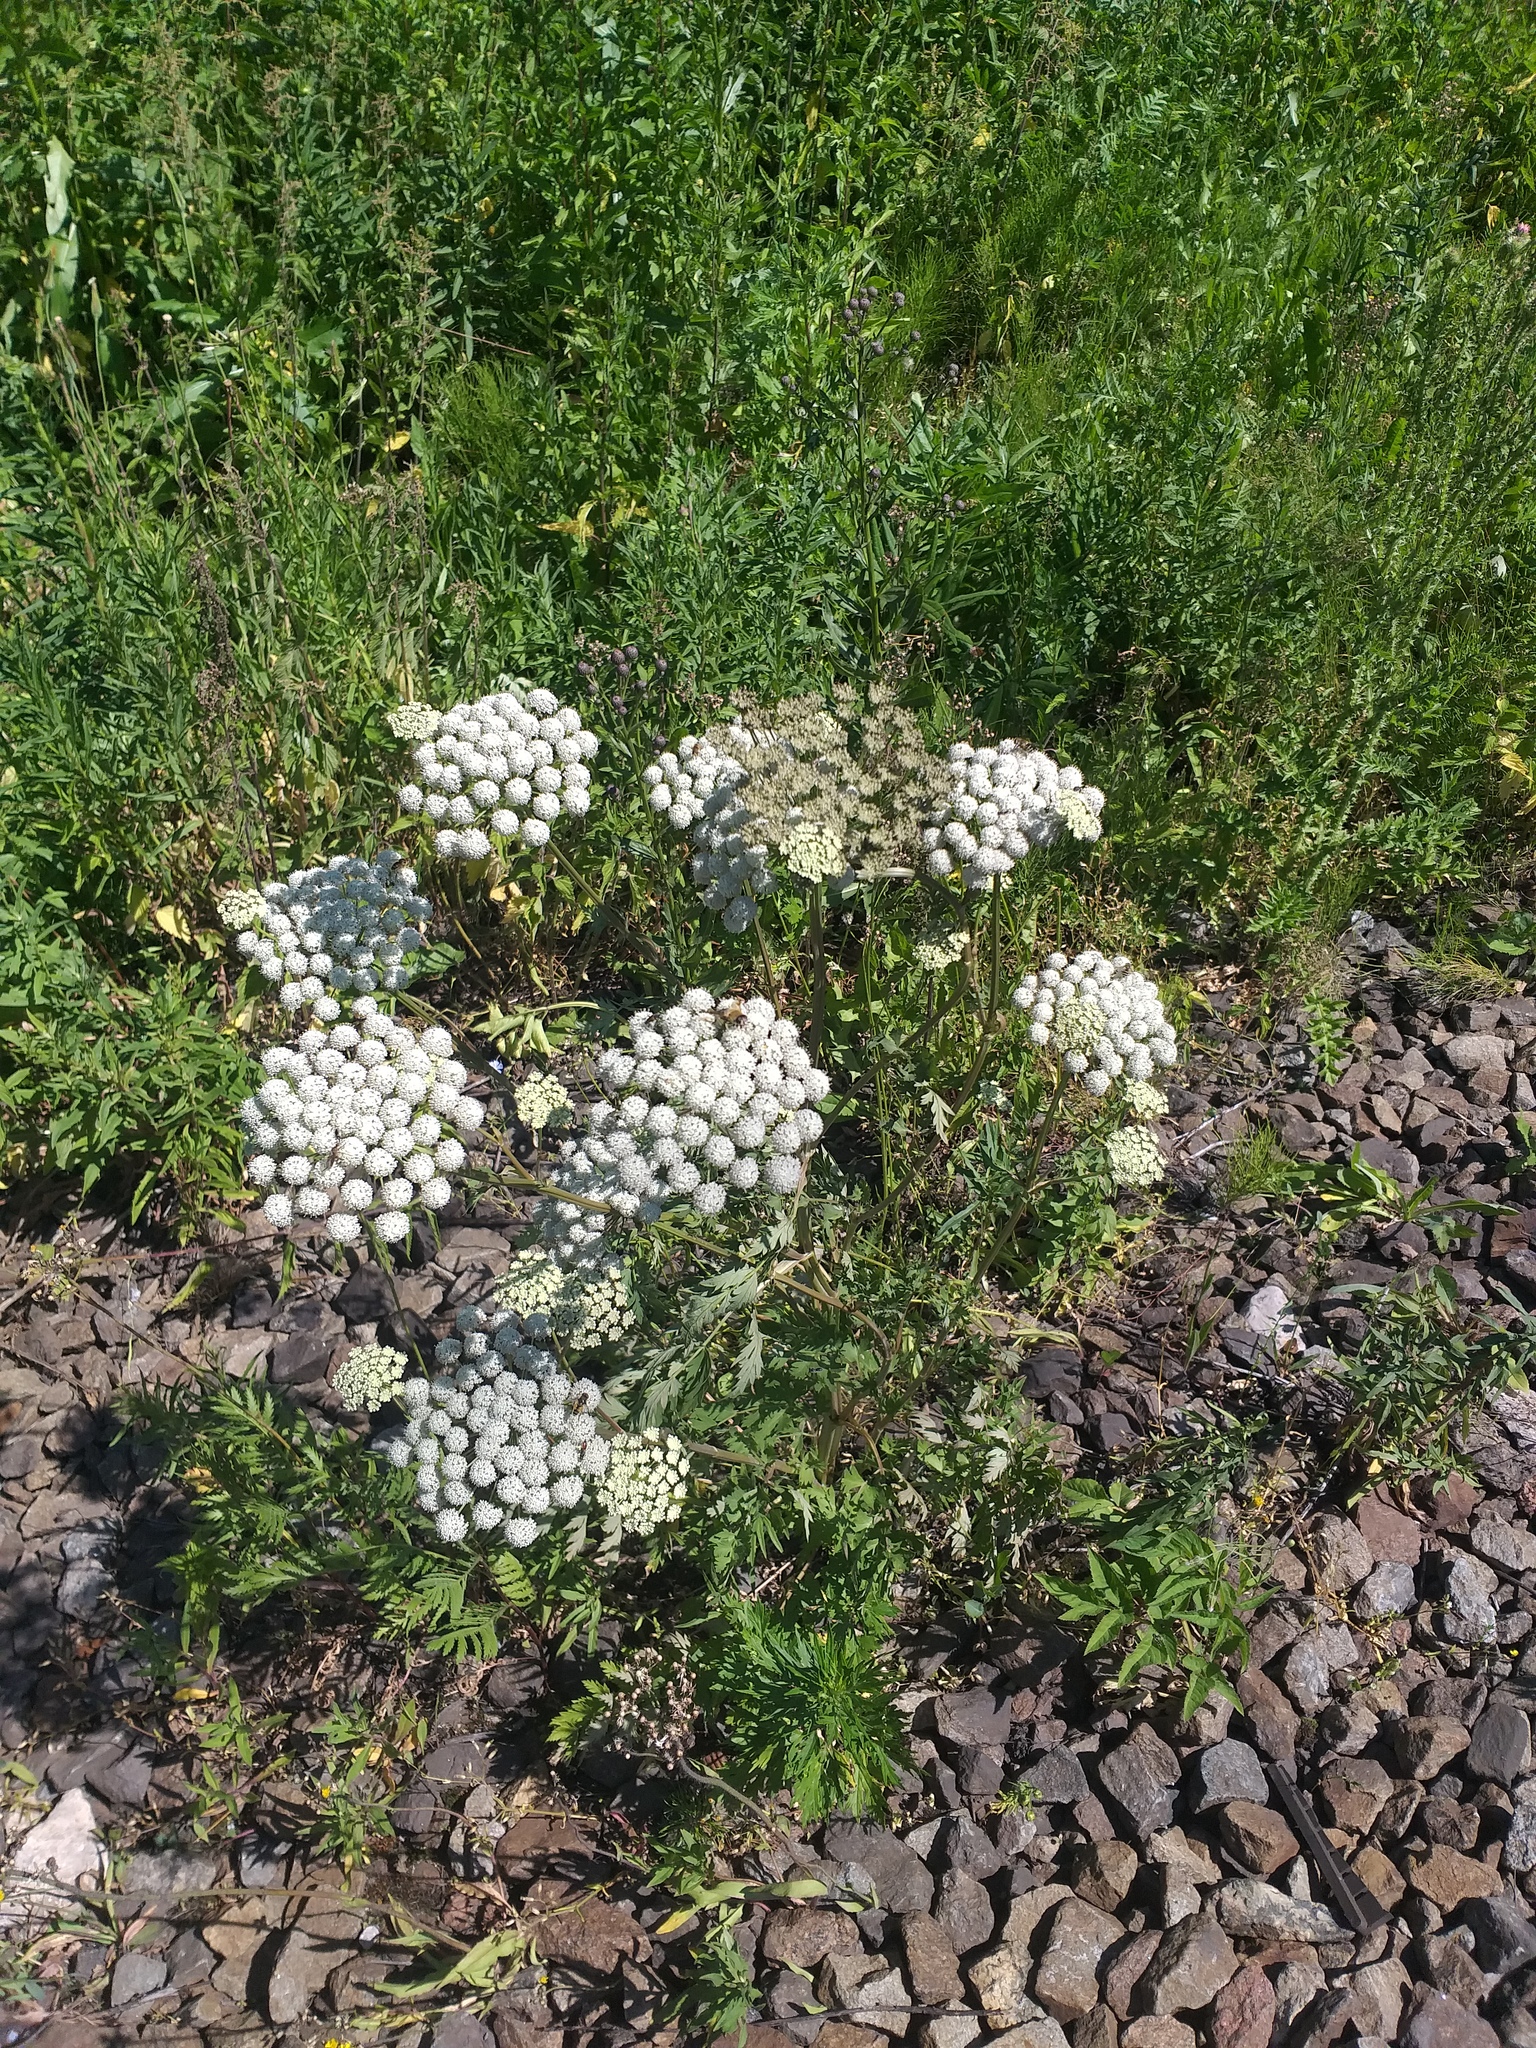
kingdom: Plantae
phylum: Tracheophyta
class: Magnoliopsida
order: Apiales
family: Apiaceae
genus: Seseli
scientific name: Seseli libanotis
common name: Mooncarrot
